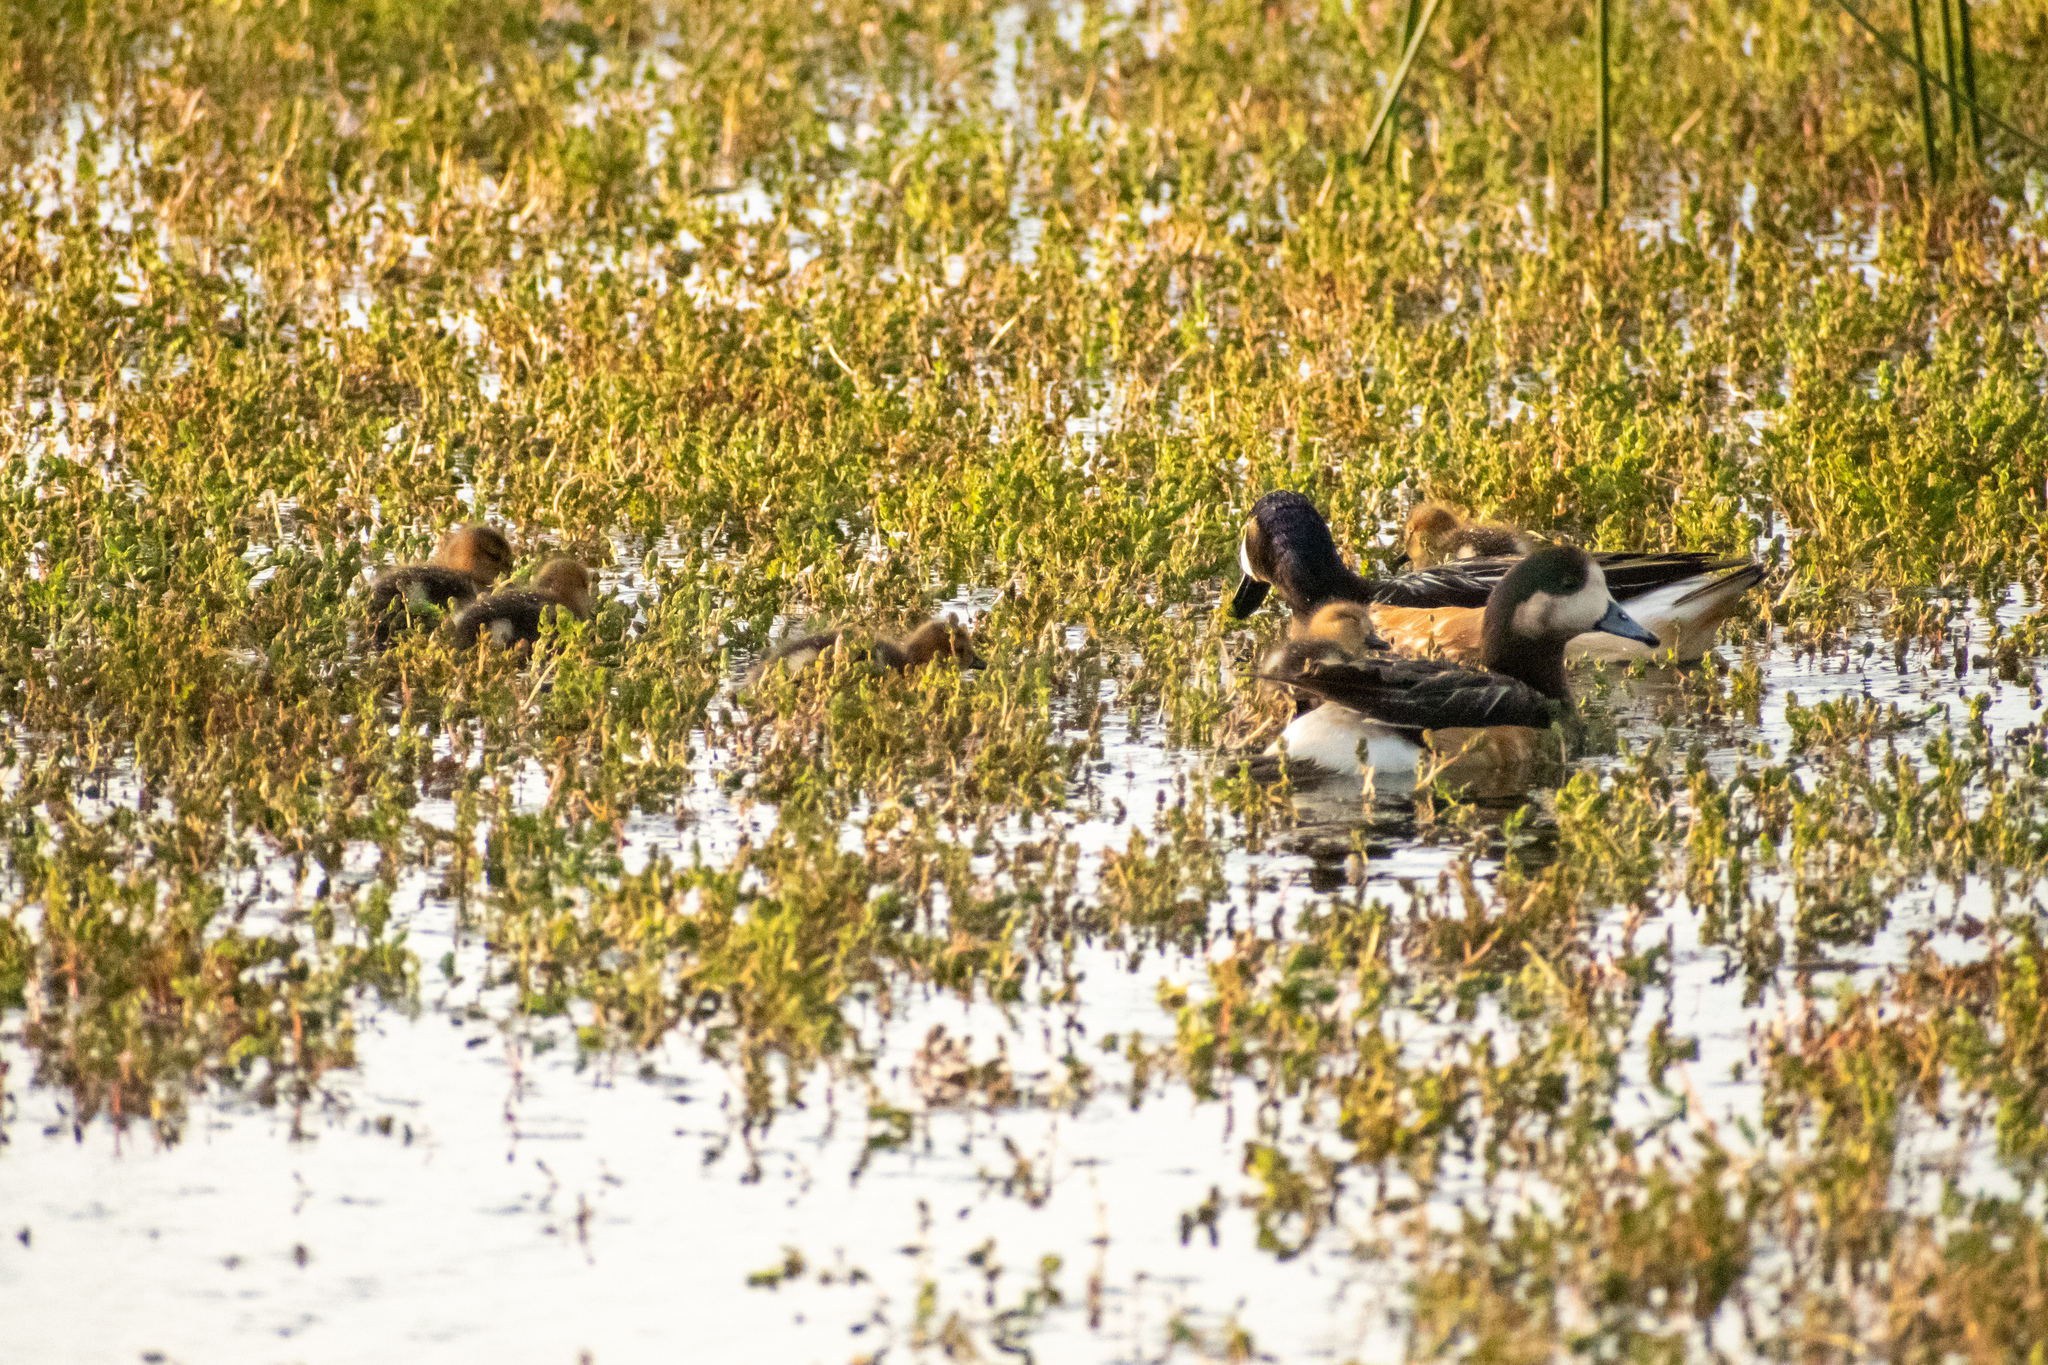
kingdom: Animalia
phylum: Chordata
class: Aves
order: Anseriformes
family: Anatidae
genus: Mareca
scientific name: Mareca sibilatrix
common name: Chiloe wigeon
